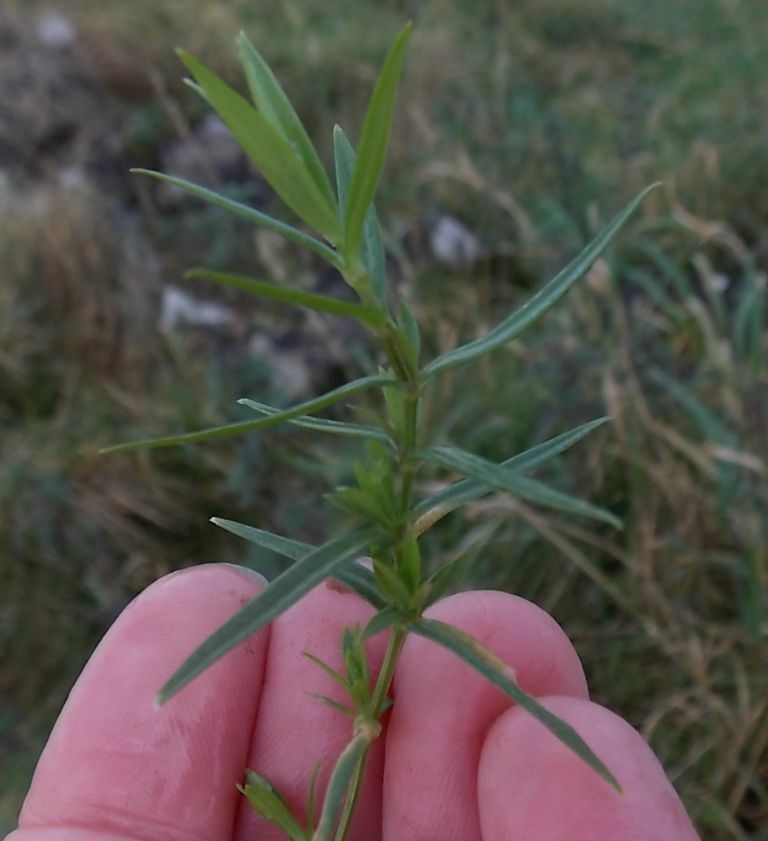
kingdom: Plantae
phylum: Tracheophyta
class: Magnoliopsida
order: Caryophyllales
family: Caryophyllaceae
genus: Rabelera
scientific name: Rabelera holostea
